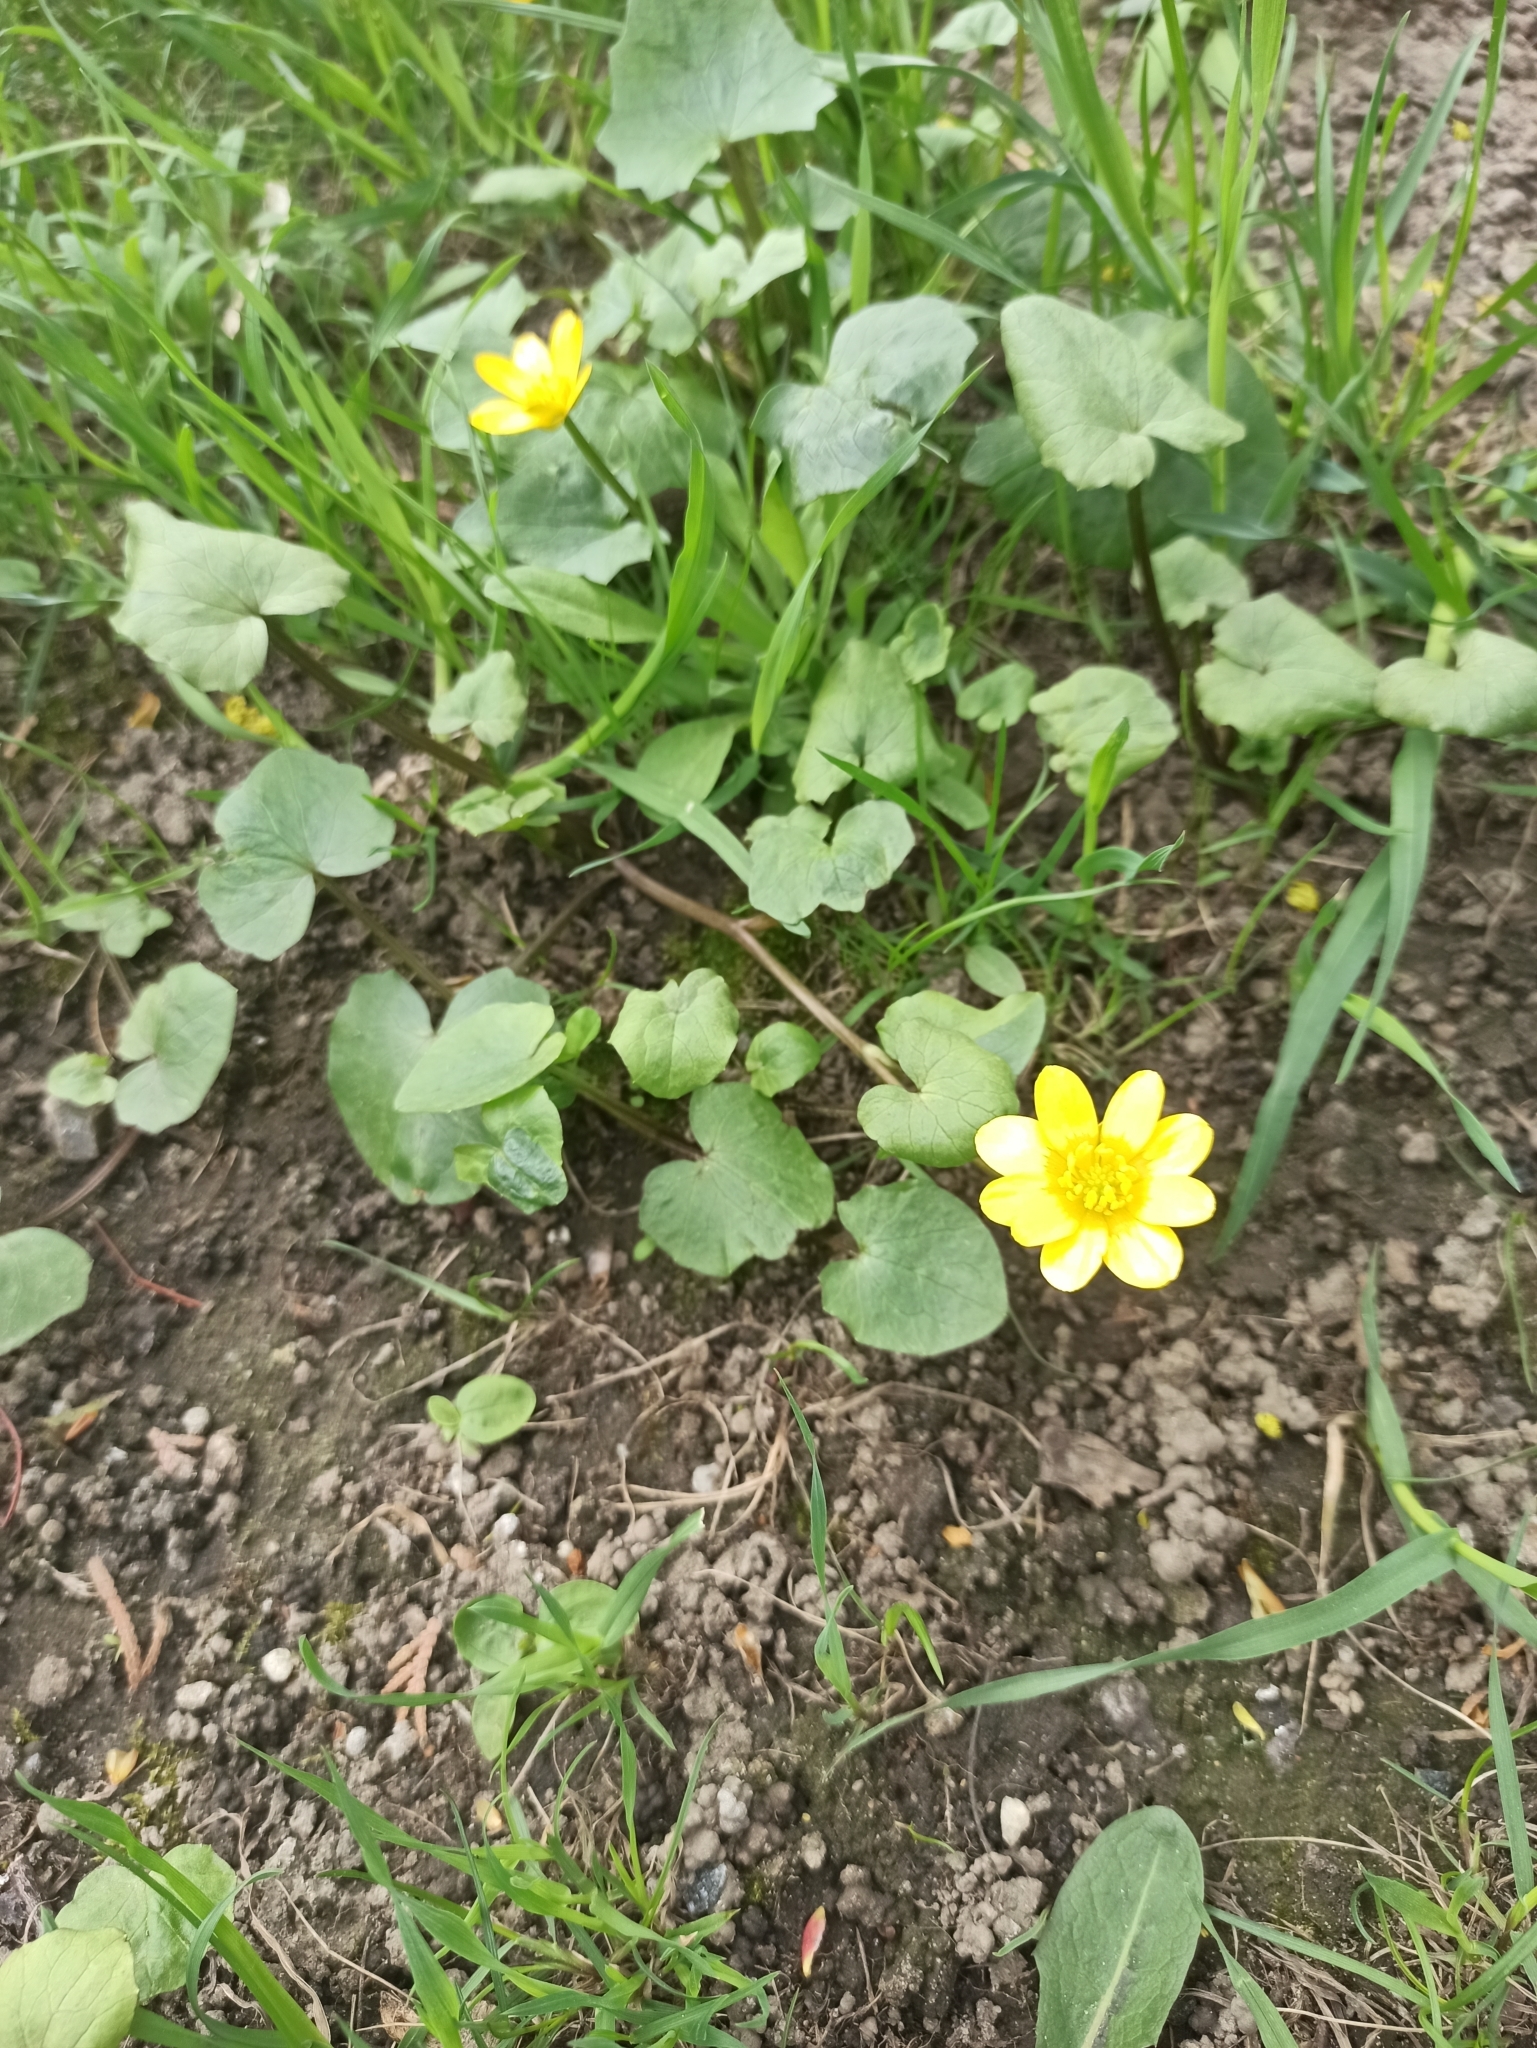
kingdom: Plantae
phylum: Tracheophyta
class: Magnoliopsida
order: Ranunculales
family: Ranunculaceae
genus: Ficaria
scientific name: Ficaria verna
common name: Lesser celandine
